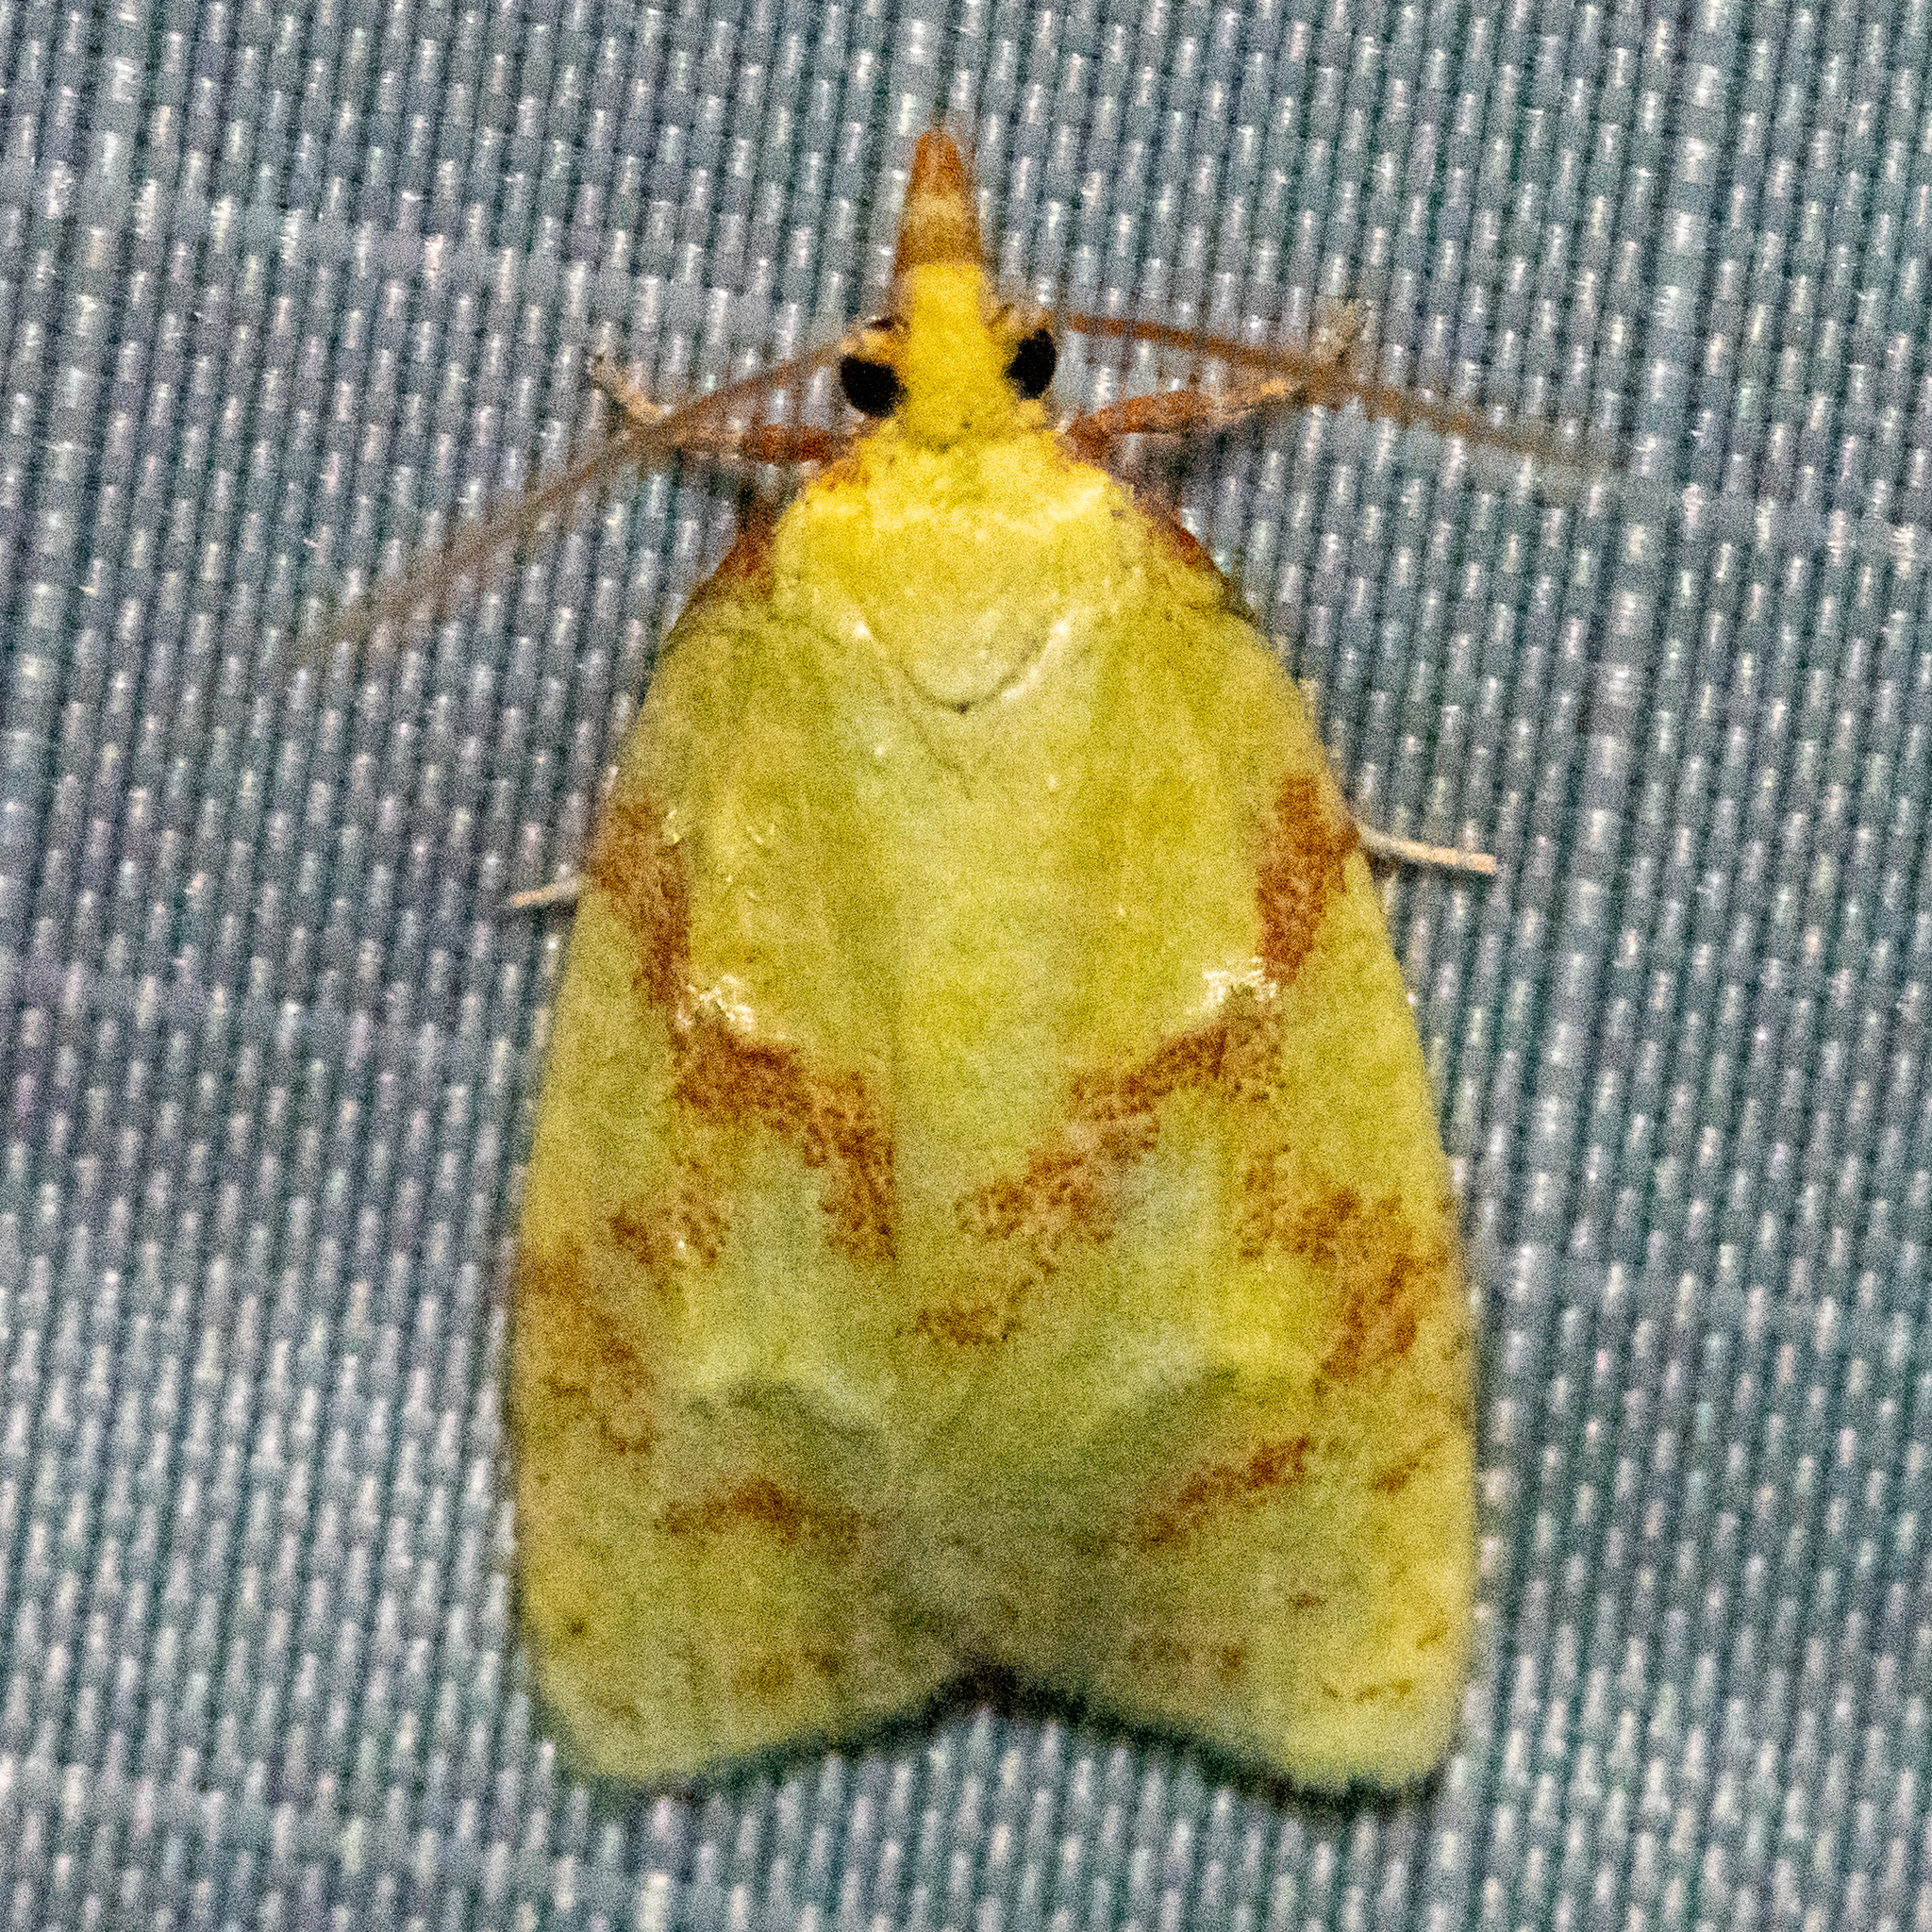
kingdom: Animalia
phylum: Arthropoda
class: Insecta
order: Lepidoptera
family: Tortricidae
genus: Cenopis
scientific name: Cenopis pettitana
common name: Maple-basswood leafroller moth
